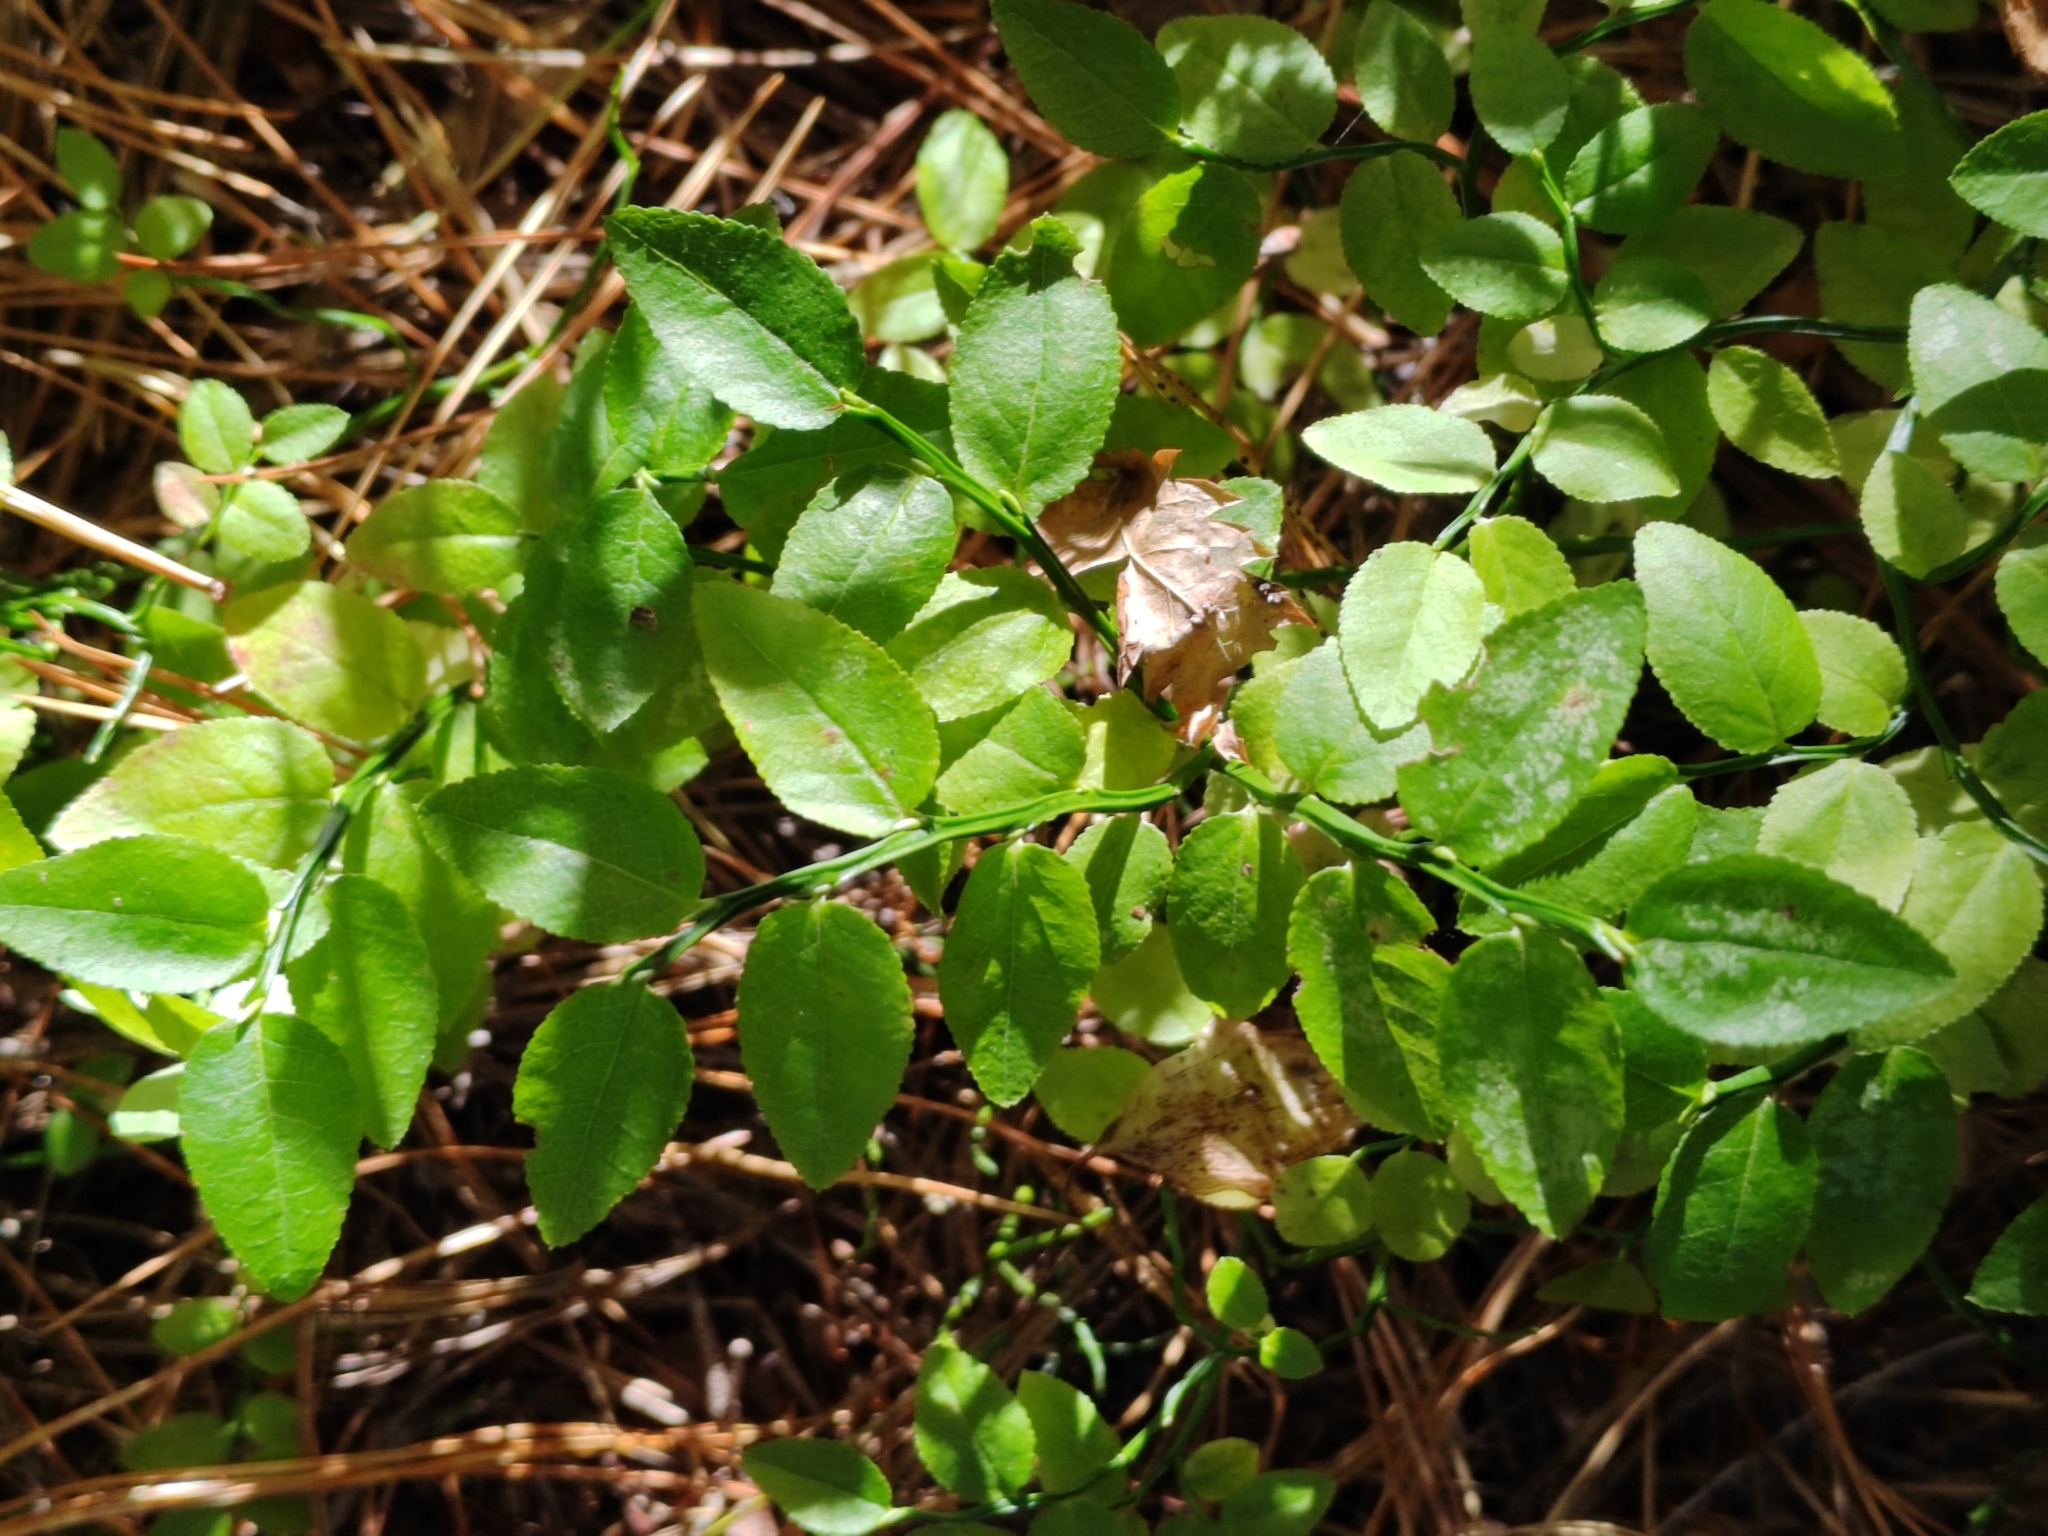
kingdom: Plantae
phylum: Tracheophyta
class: Magnoliopsida
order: Ericales
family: Ericaceae
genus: Vaccinium
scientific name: Vaccinium myrtillus
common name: Bilberry
